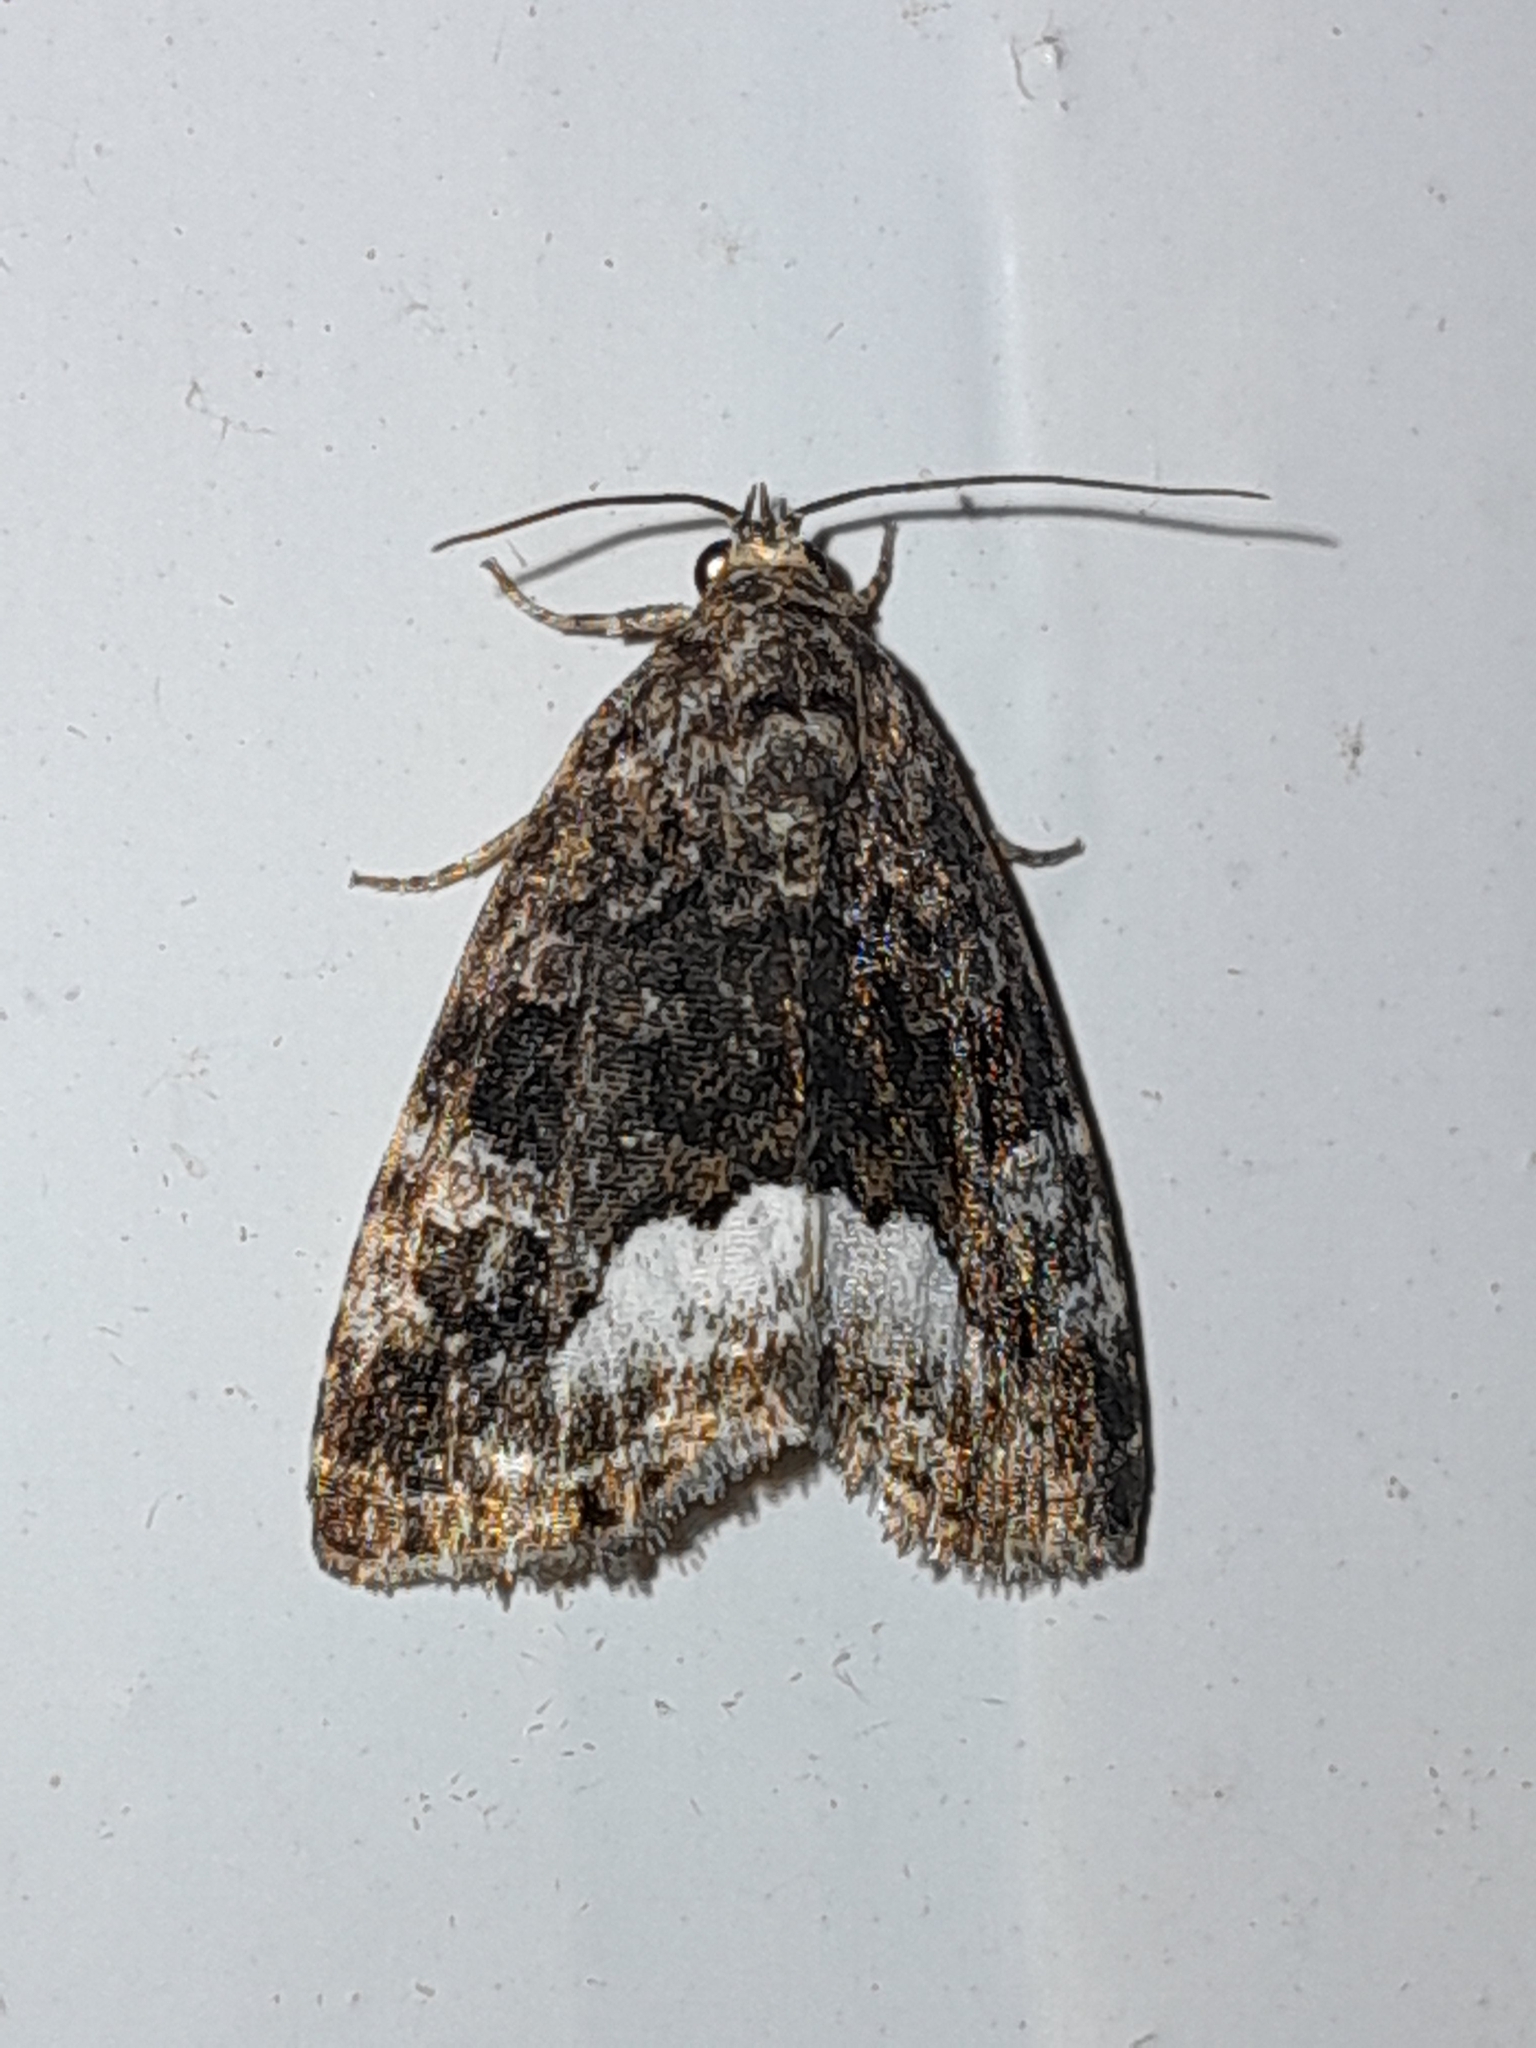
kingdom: Animalia
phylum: Arthropoda
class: Insecta
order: Lepidoptera
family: Noctuidae
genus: Deltote
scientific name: Deltote pygarga
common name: Marbled white spot
